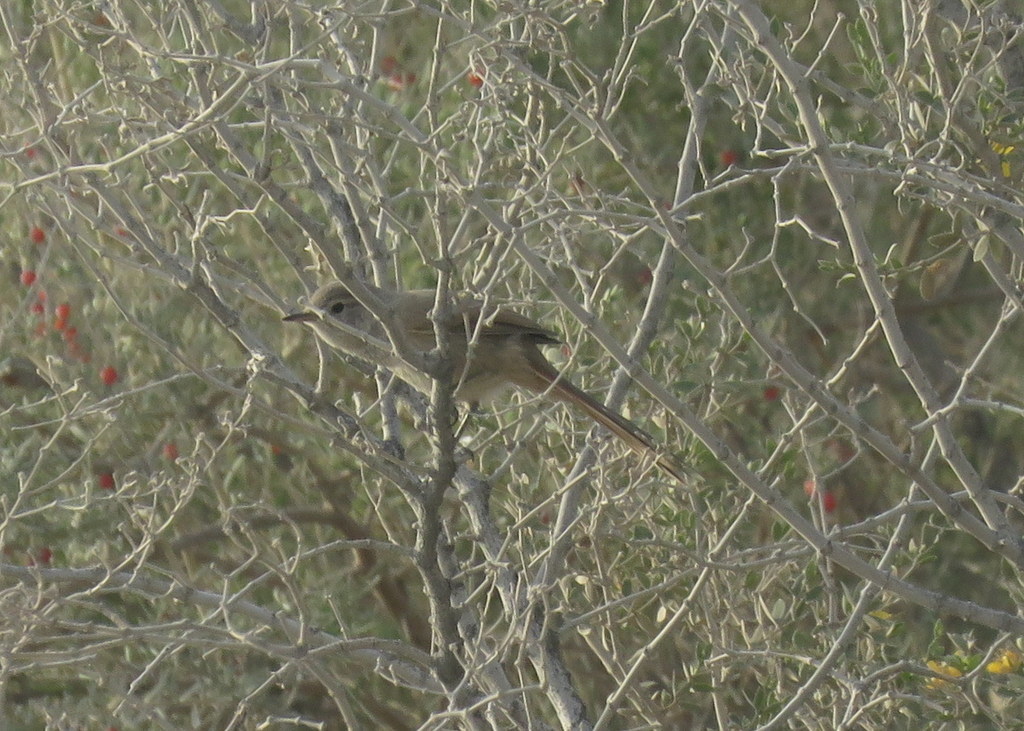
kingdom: Animalia
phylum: Chordata
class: Aves
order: Passeriformes
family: Furnariidae
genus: Asthenes
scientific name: Asthenes pyrrholeuca
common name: Sharp-billed canastero
